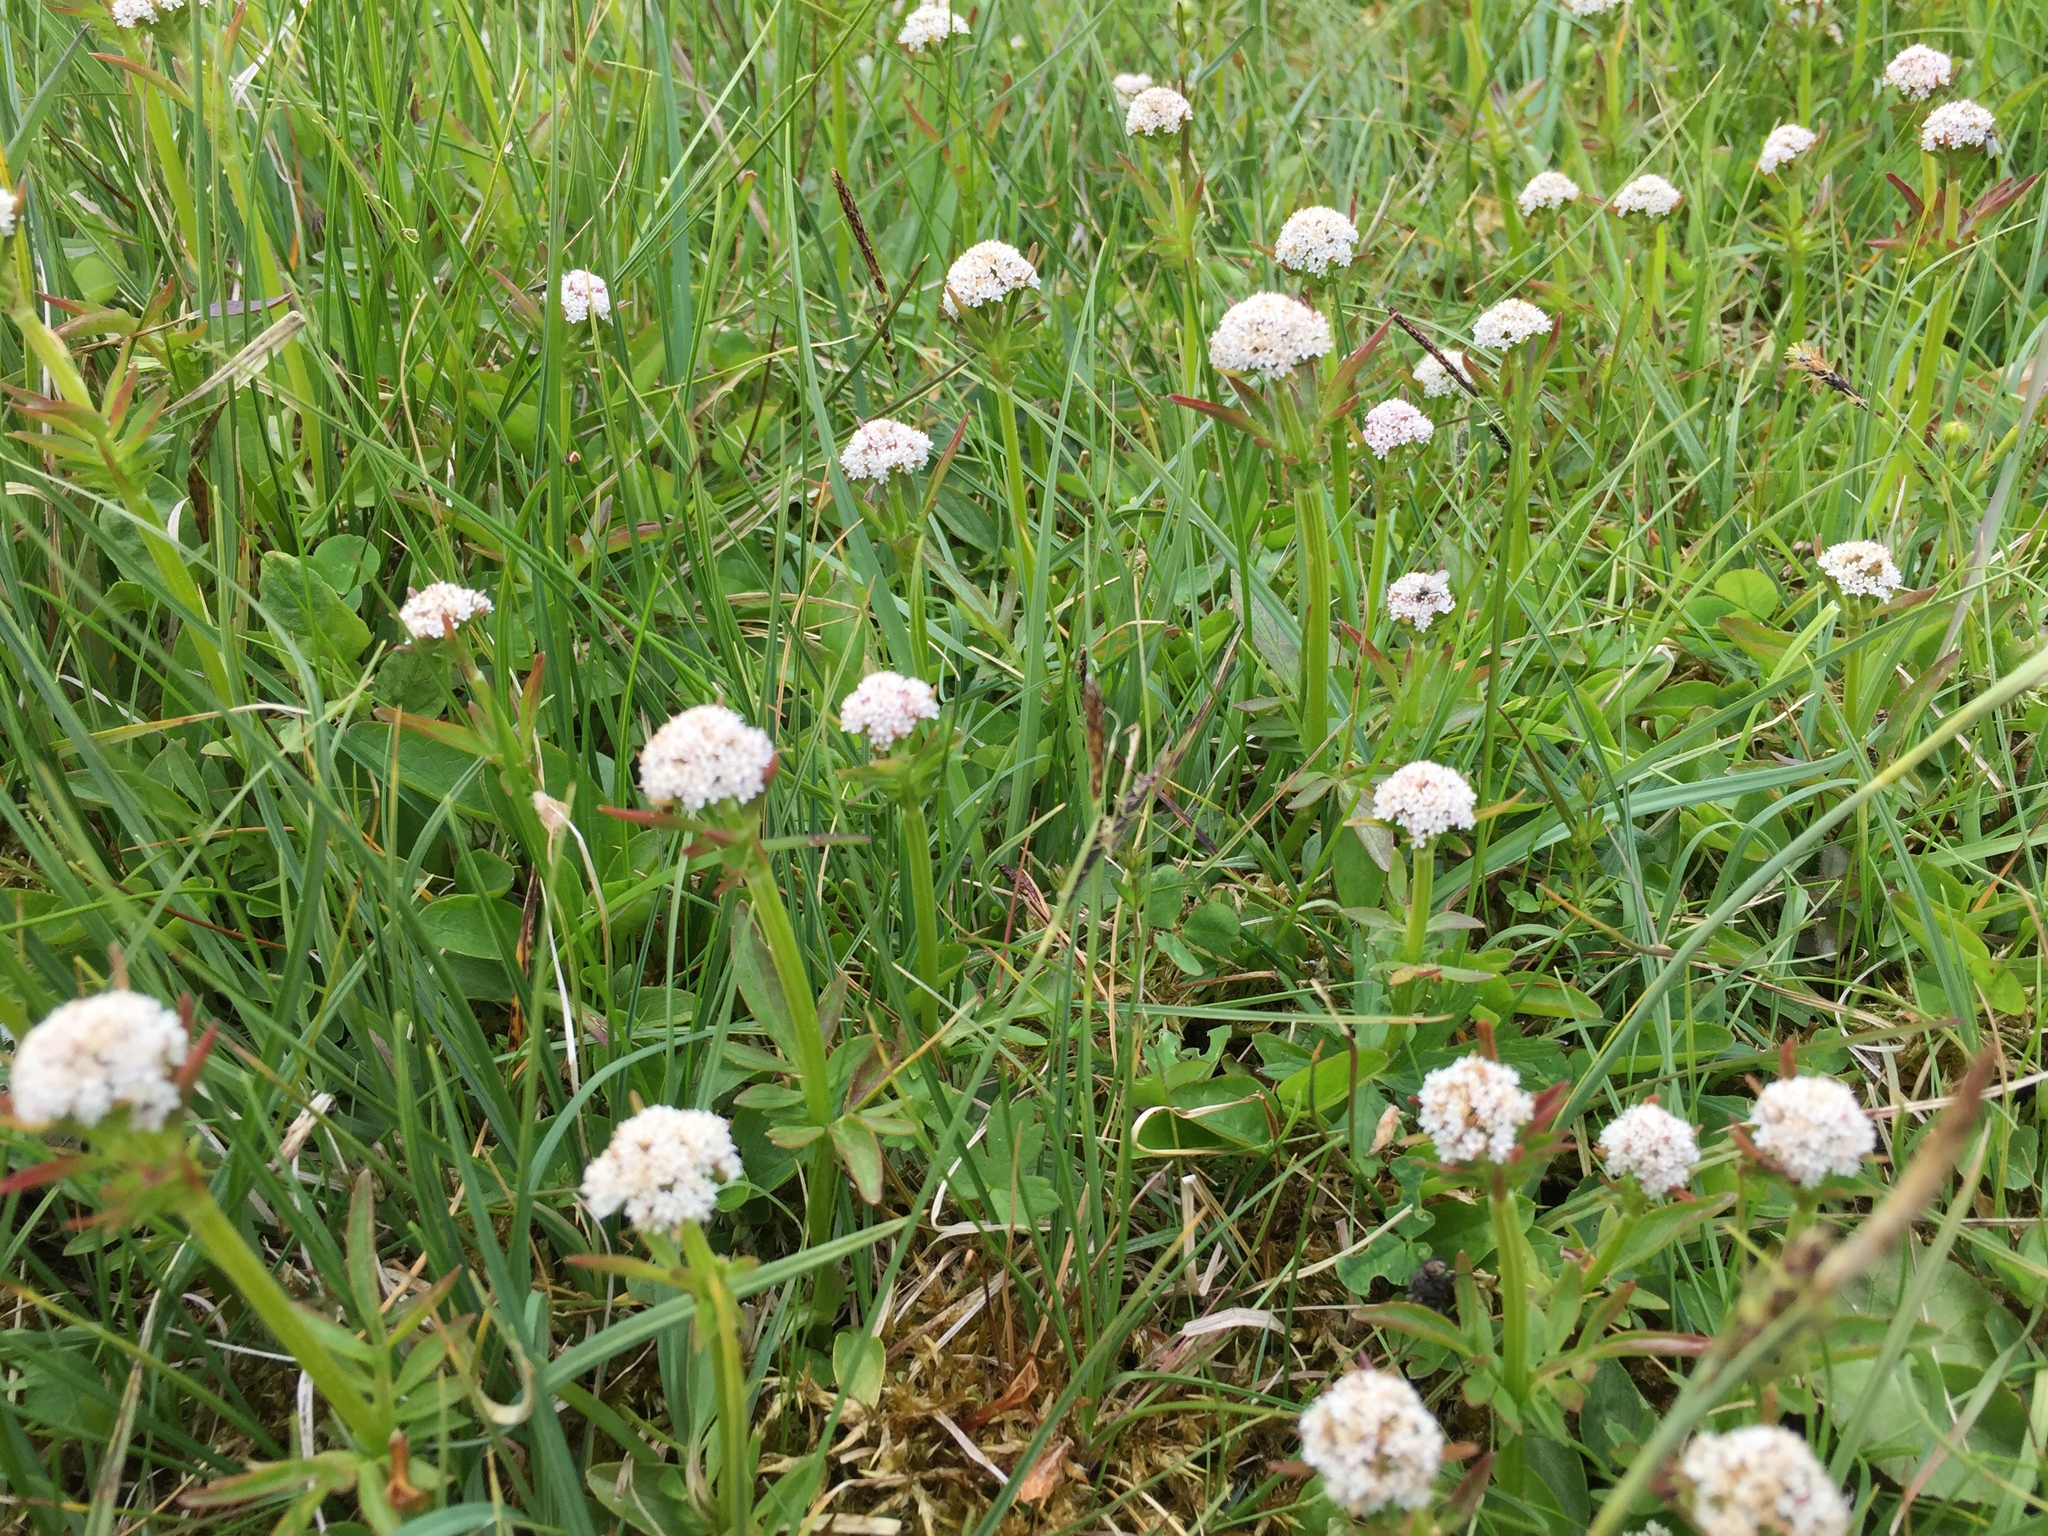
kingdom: Plantae
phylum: Tracheophyta
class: Magnoliopsida
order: Dipsacales
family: Caprifoliaceae
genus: Valeriana
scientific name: Valeriana dioica
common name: Marsh valerian
